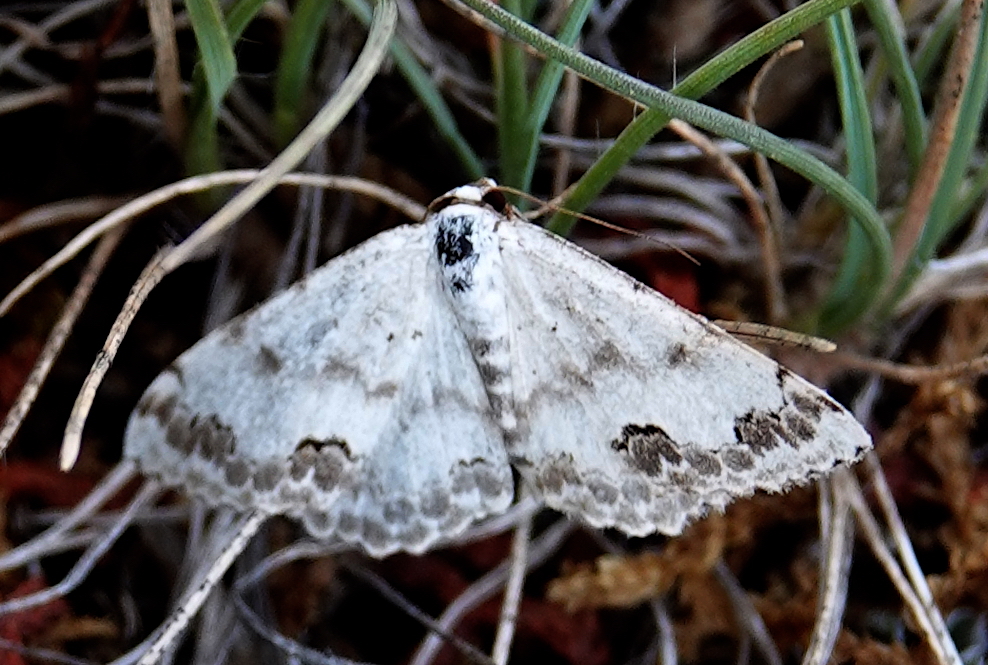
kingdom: Animalia
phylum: Arthropoda
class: Insecta
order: Lepidoptera
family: Geometridae
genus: Scopula
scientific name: Scopula decorata
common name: Middle lace border
